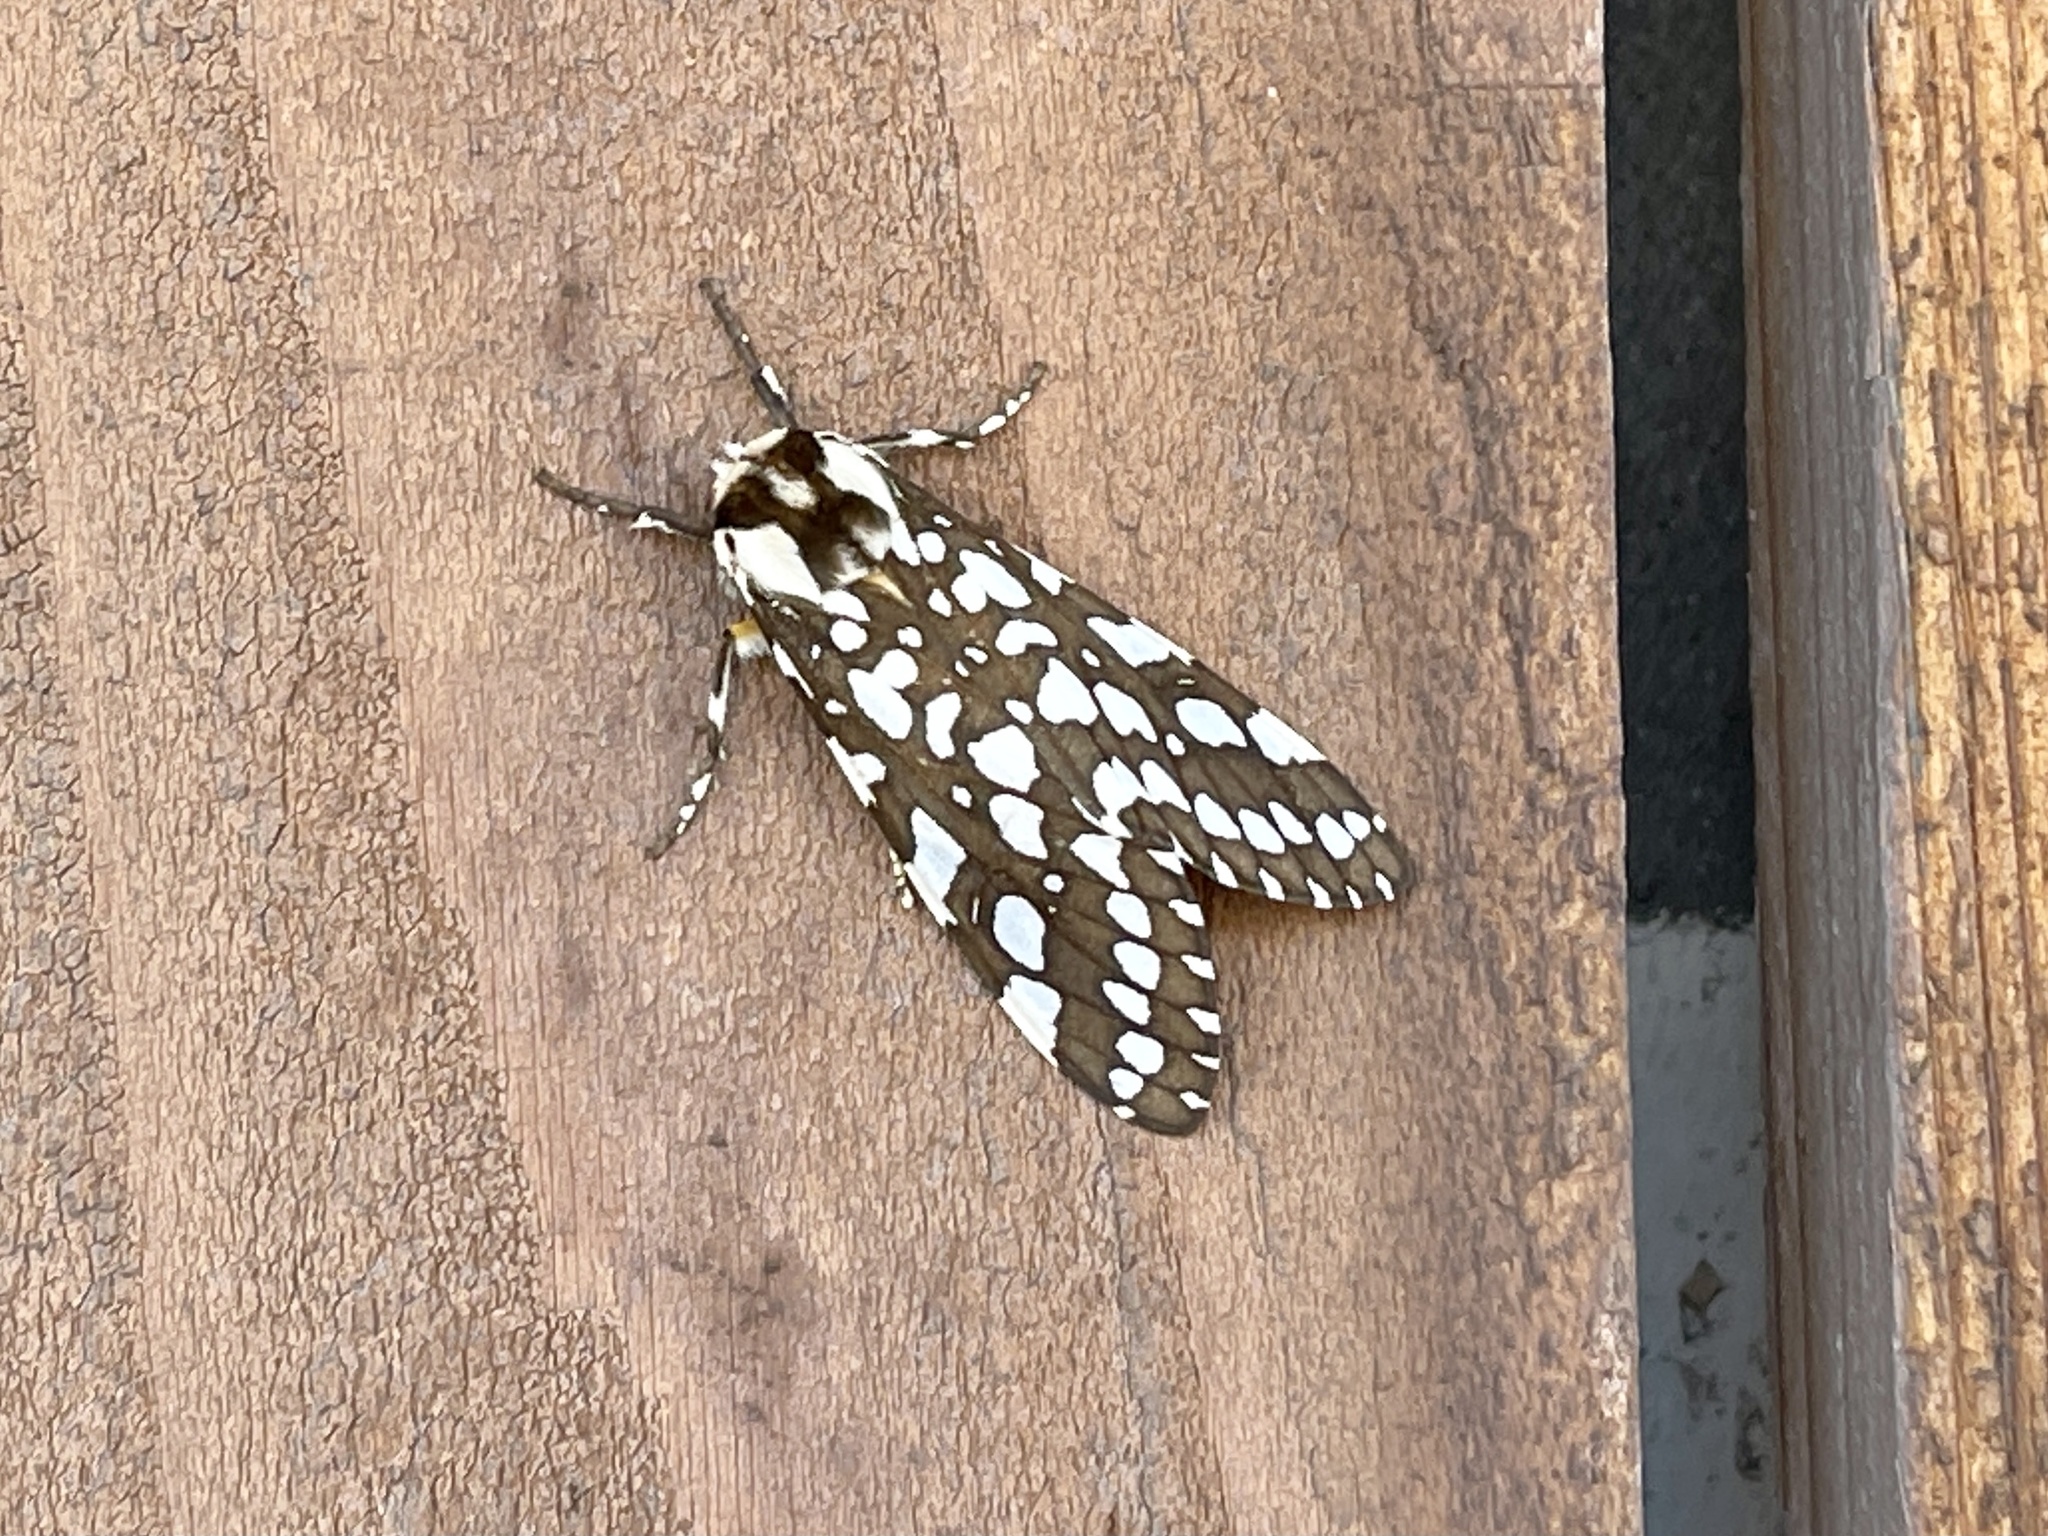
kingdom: Animalia
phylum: Arthropoda
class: Insecta
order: Lepidoptera
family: Erebidae
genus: Lophocampa
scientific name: Lophocampa ingens
